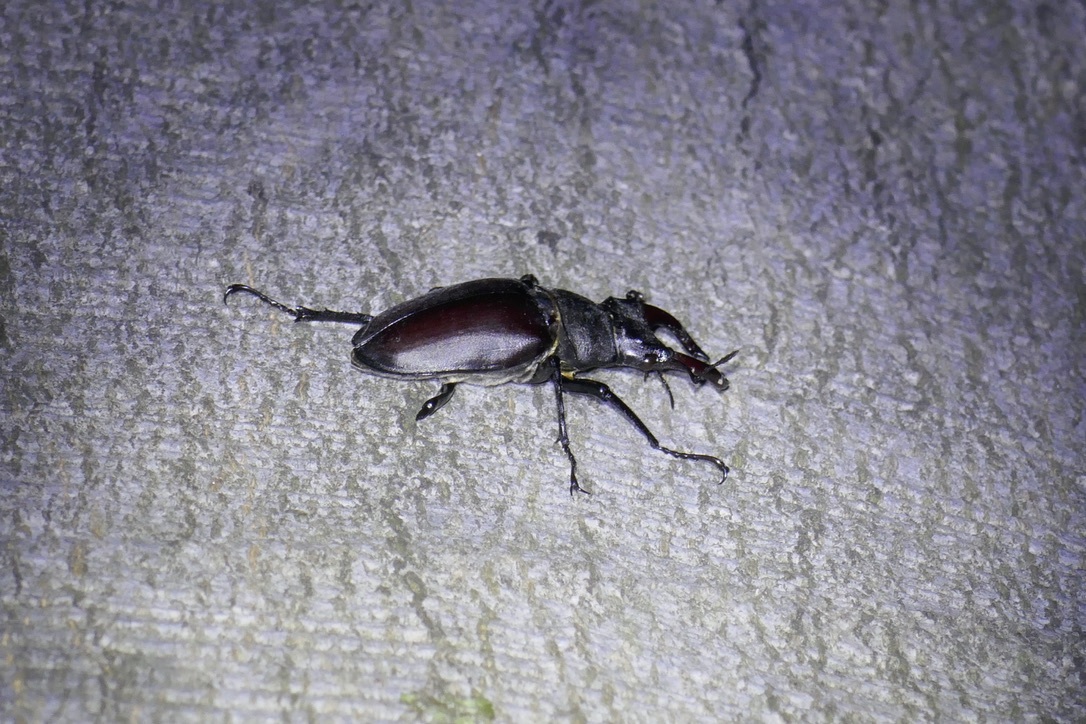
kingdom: Animalia
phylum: Arthropoda
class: Insecta
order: Coleoptera
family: Lucanidae
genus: Lucanus
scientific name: Lucanus cervus
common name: Stag beetle
